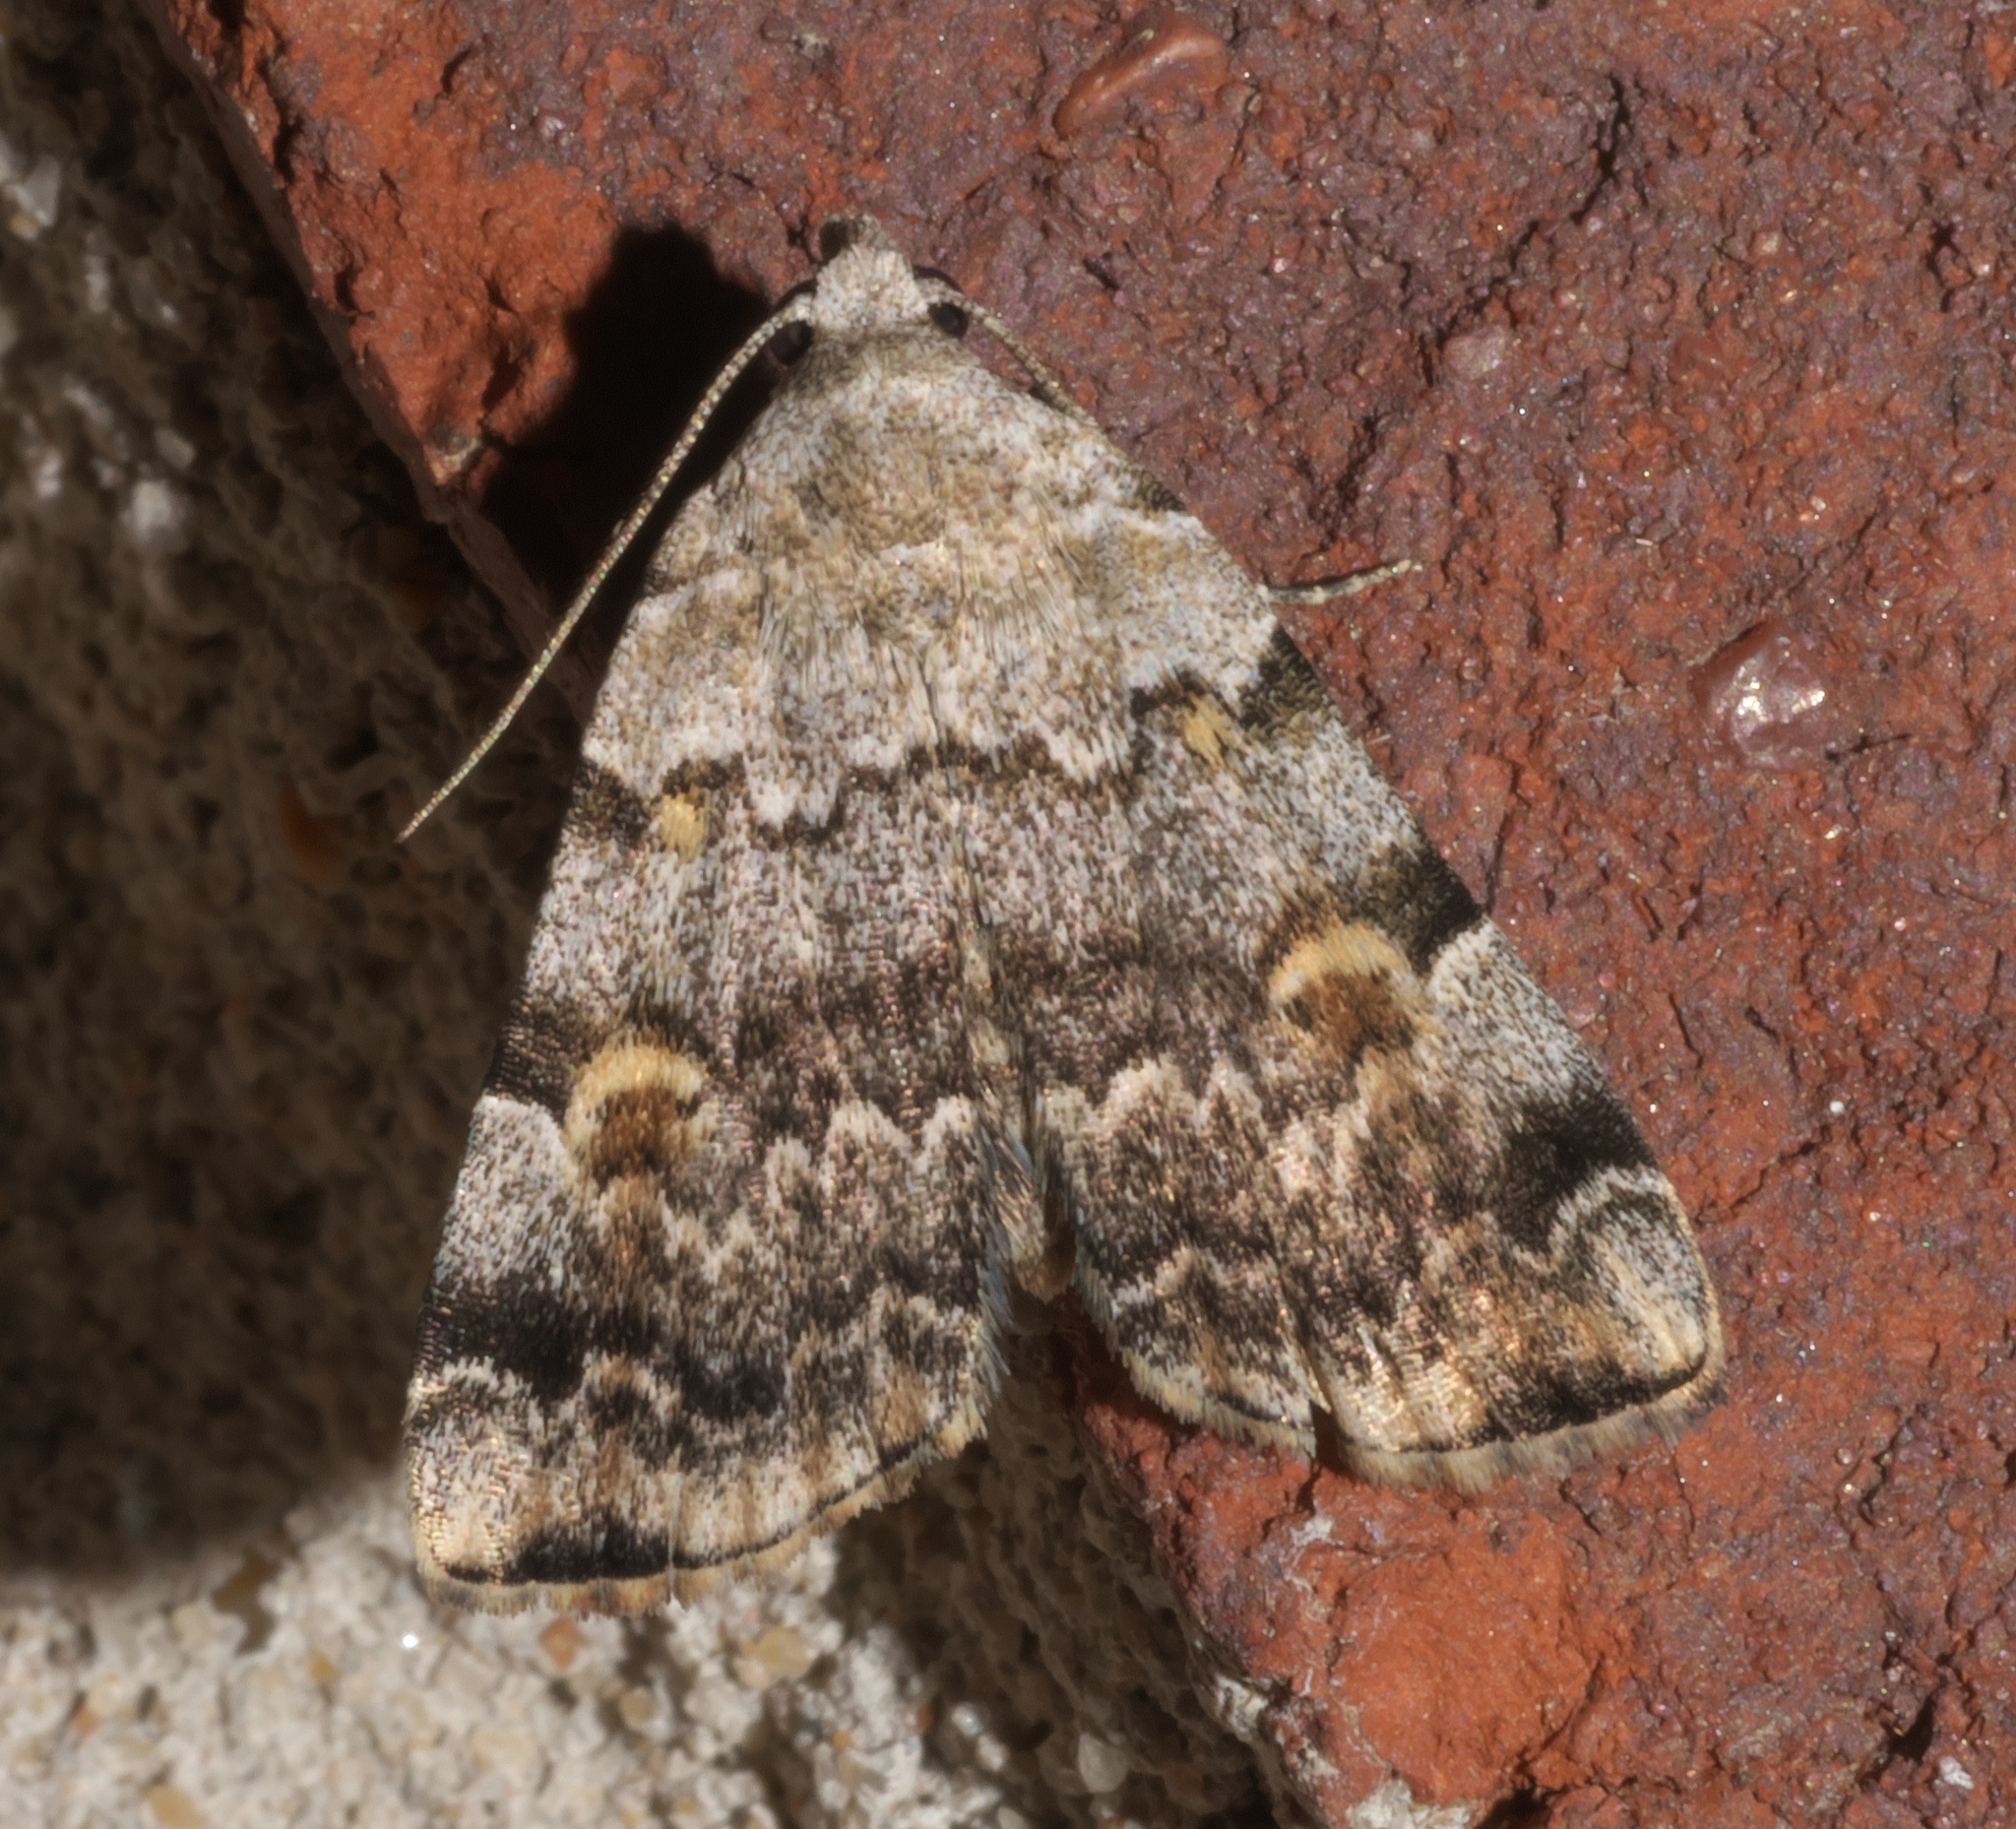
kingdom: Animalia
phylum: Arthropoda
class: Insecta
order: Lepidoptera
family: Erebidae
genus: Idia
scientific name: Idia americalis
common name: American idia moth
